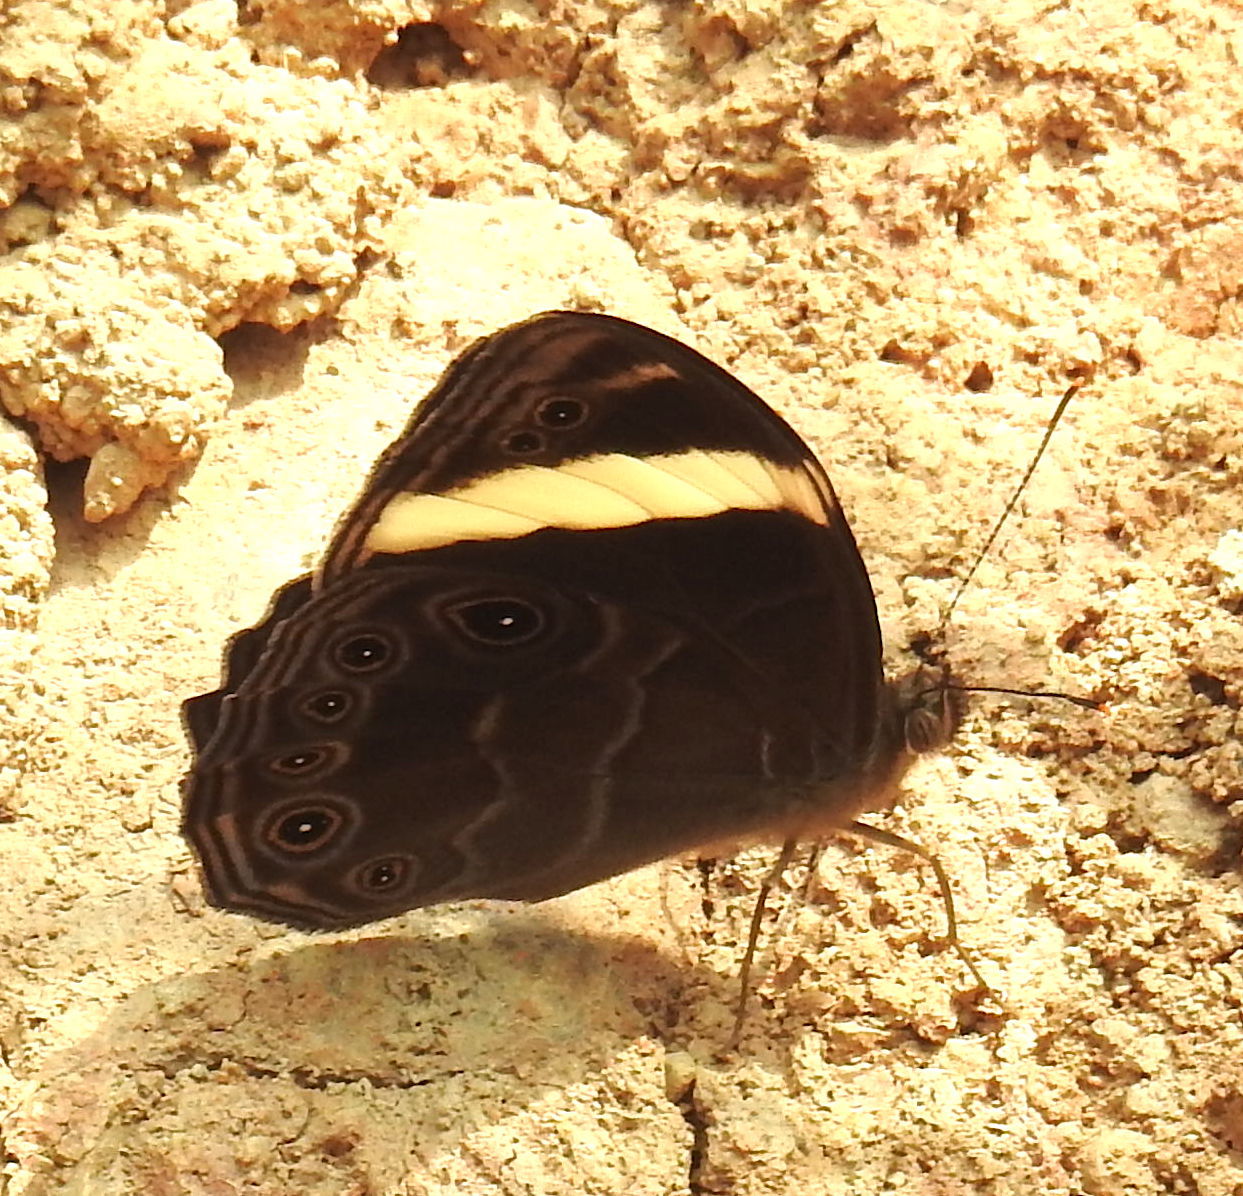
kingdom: Animalia
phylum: Arthropoda
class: Insecta
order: Lepidoptera
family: Nymphalidae
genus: Lethe
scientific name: Lethe verma
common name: Straight-banded treebrown
